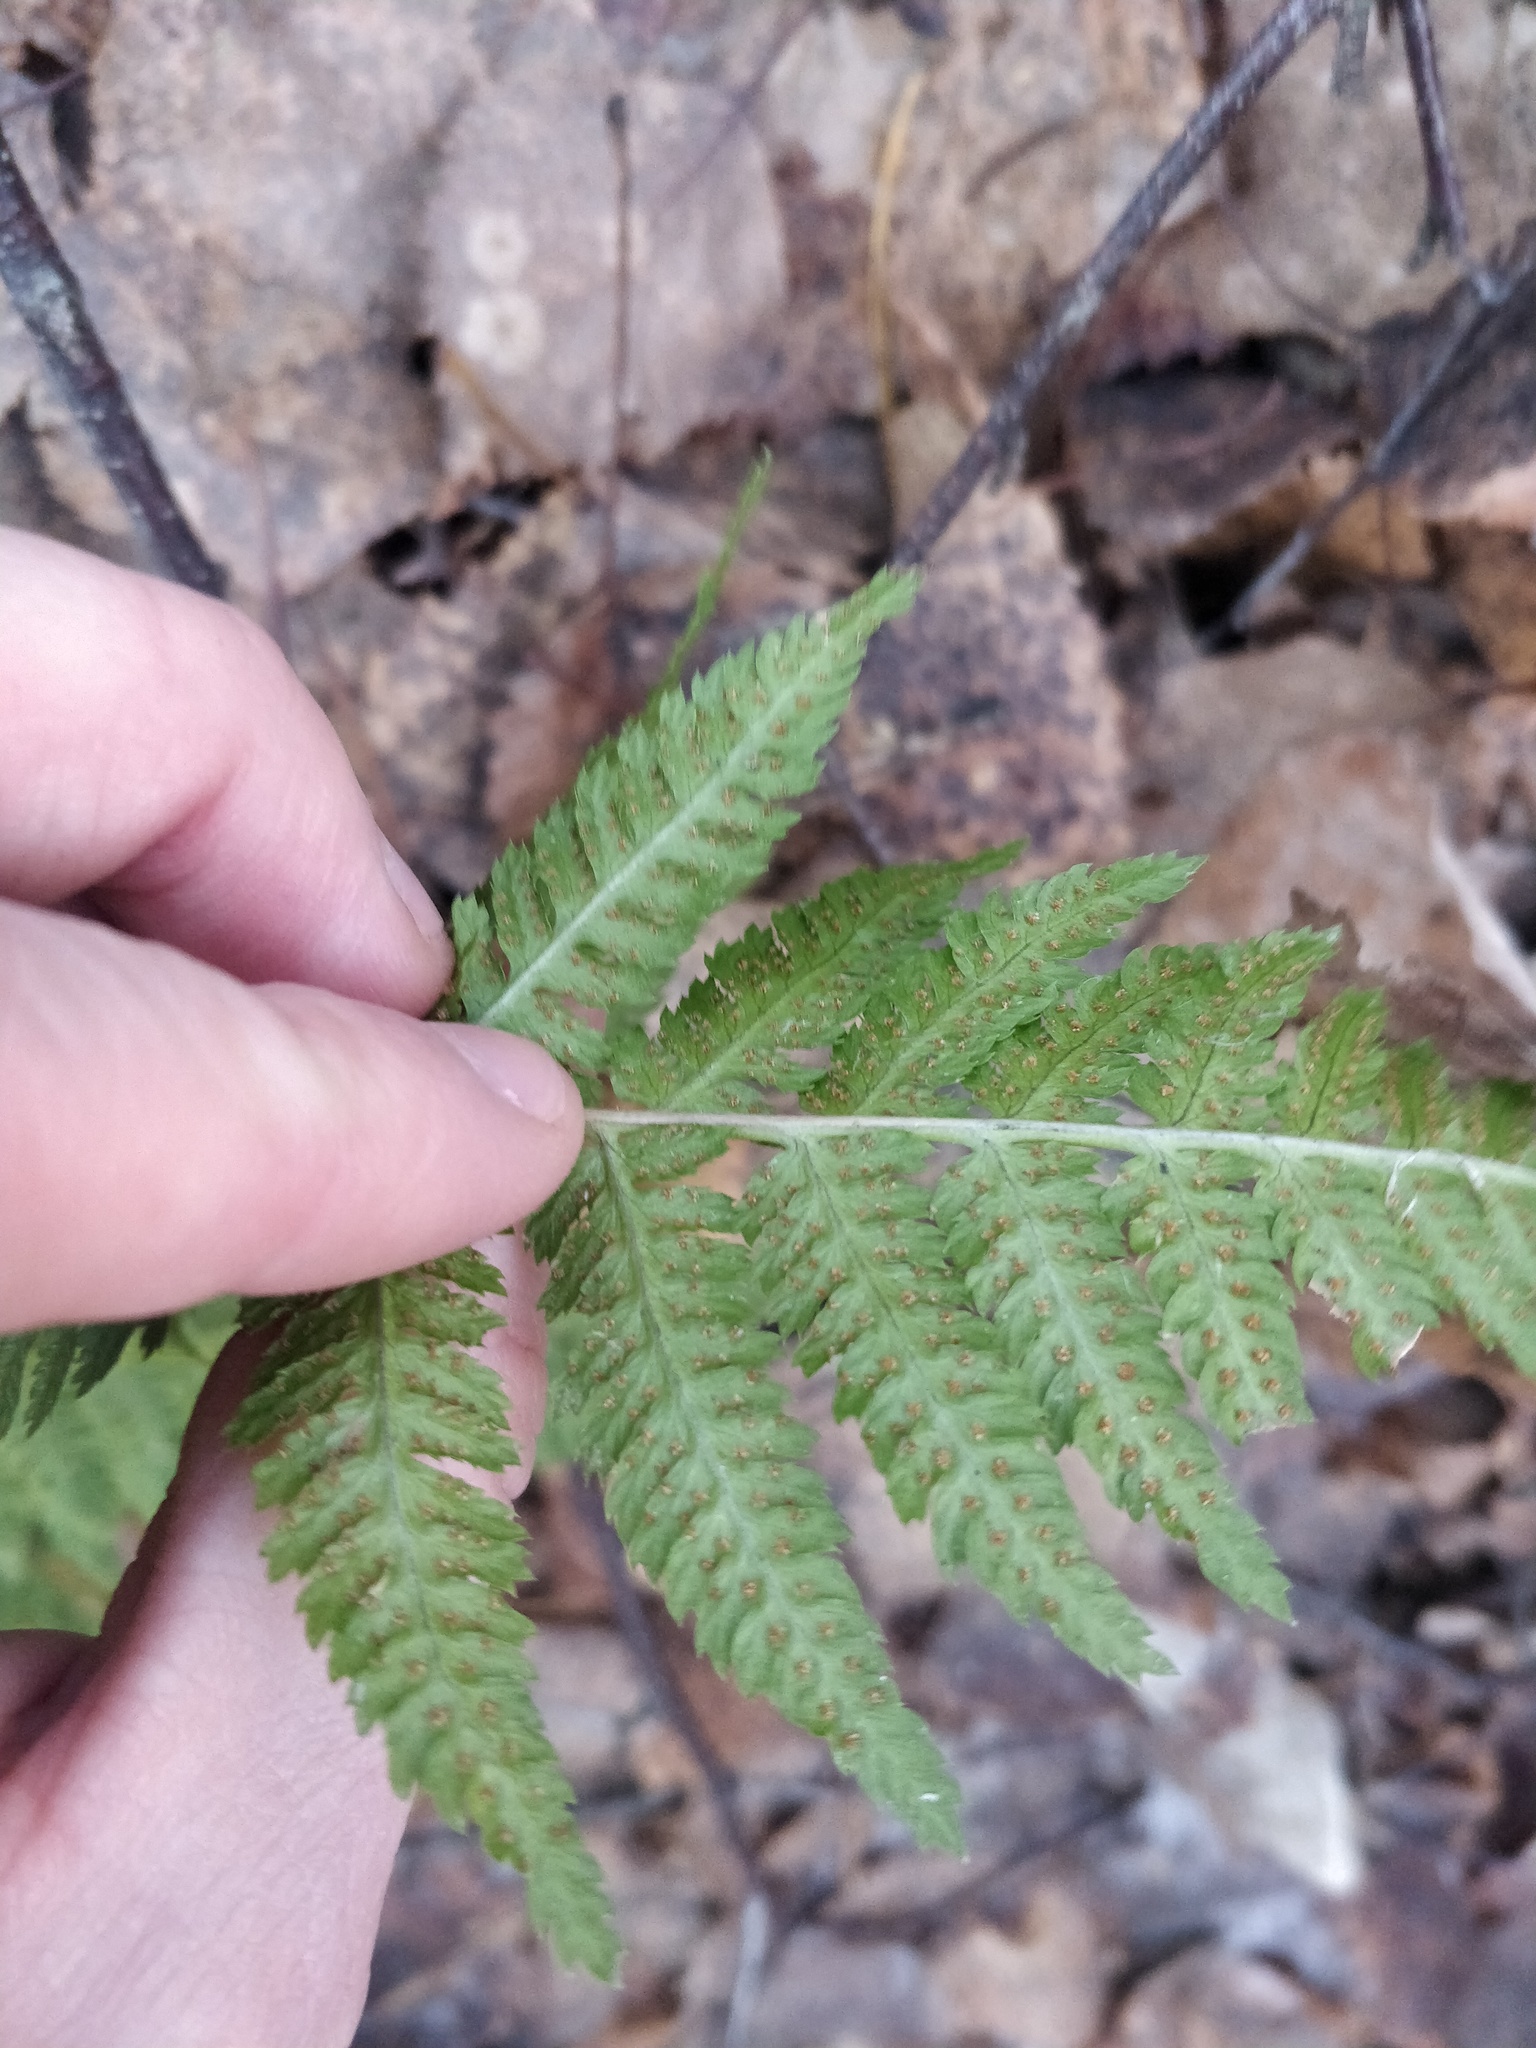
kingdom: Plantae
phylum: Tracheophyta
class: Polypodiopsida
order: Polypodiales
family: Dryopteridaceae
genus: Dryopteris
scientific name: Dryopteris carthusiana
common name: Narrow buckler-fern
